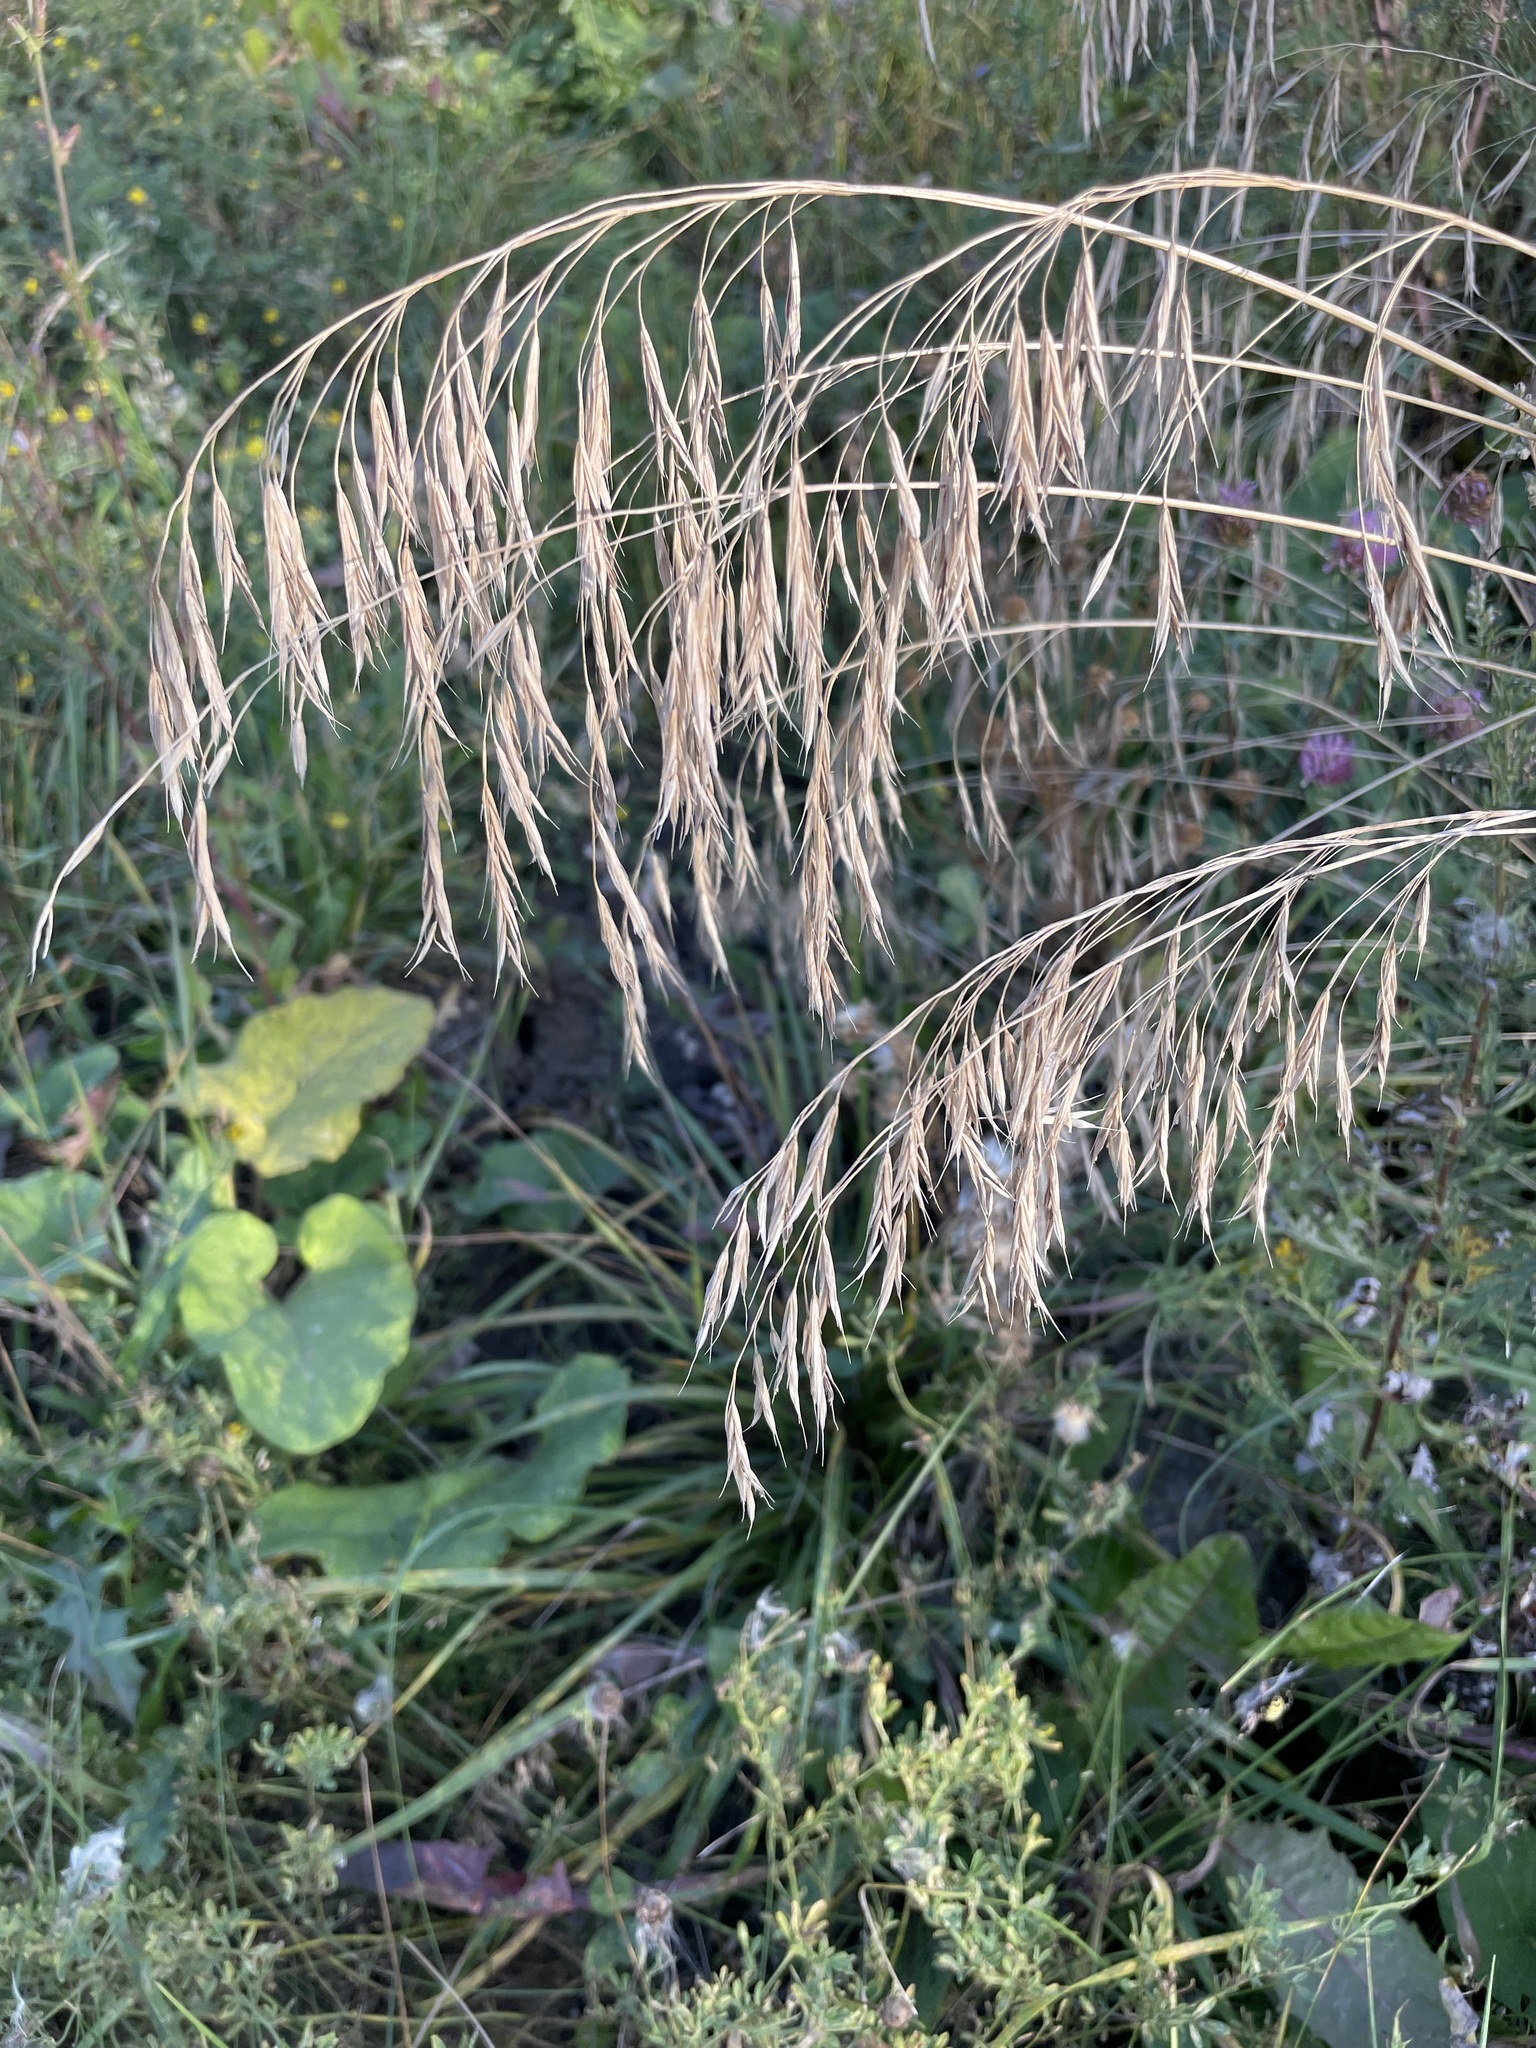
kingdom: Plantae
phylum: Tracheophyta
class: Liliopsida
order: Poales
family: Poaceae
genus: Bromus
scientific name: Bromus inermis
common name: Smooth brome
